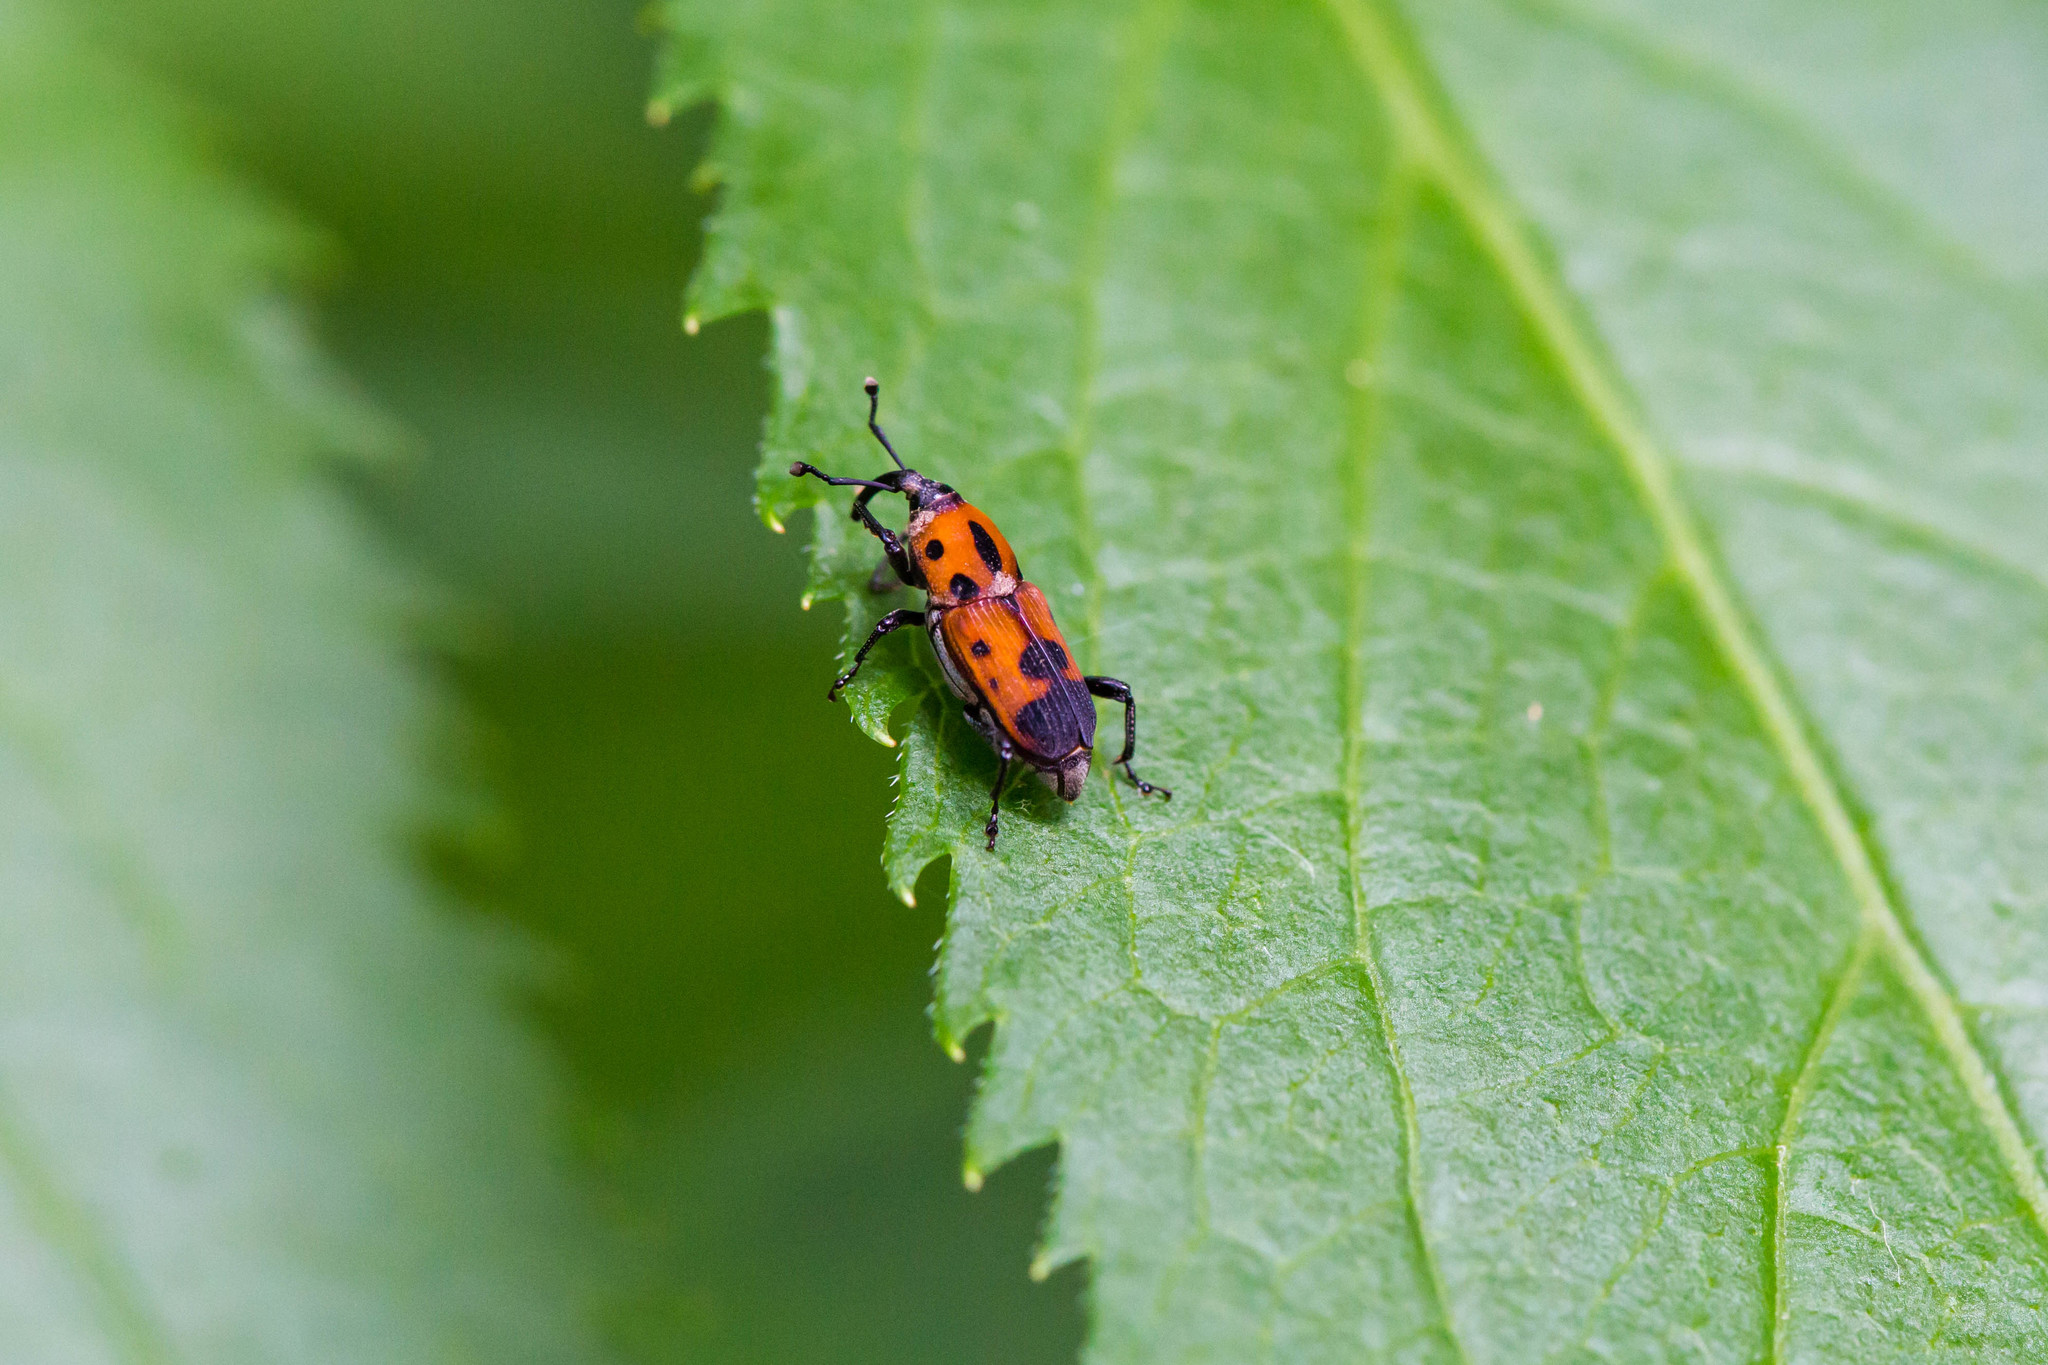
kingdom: Animalia
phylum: Arthropoda
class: Insecta
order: Coleoptera
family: Dryophthoridae
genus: Rhodobaenus
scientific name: Rhodobaenus quinquepunctatus
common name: Cocklebur weevil
